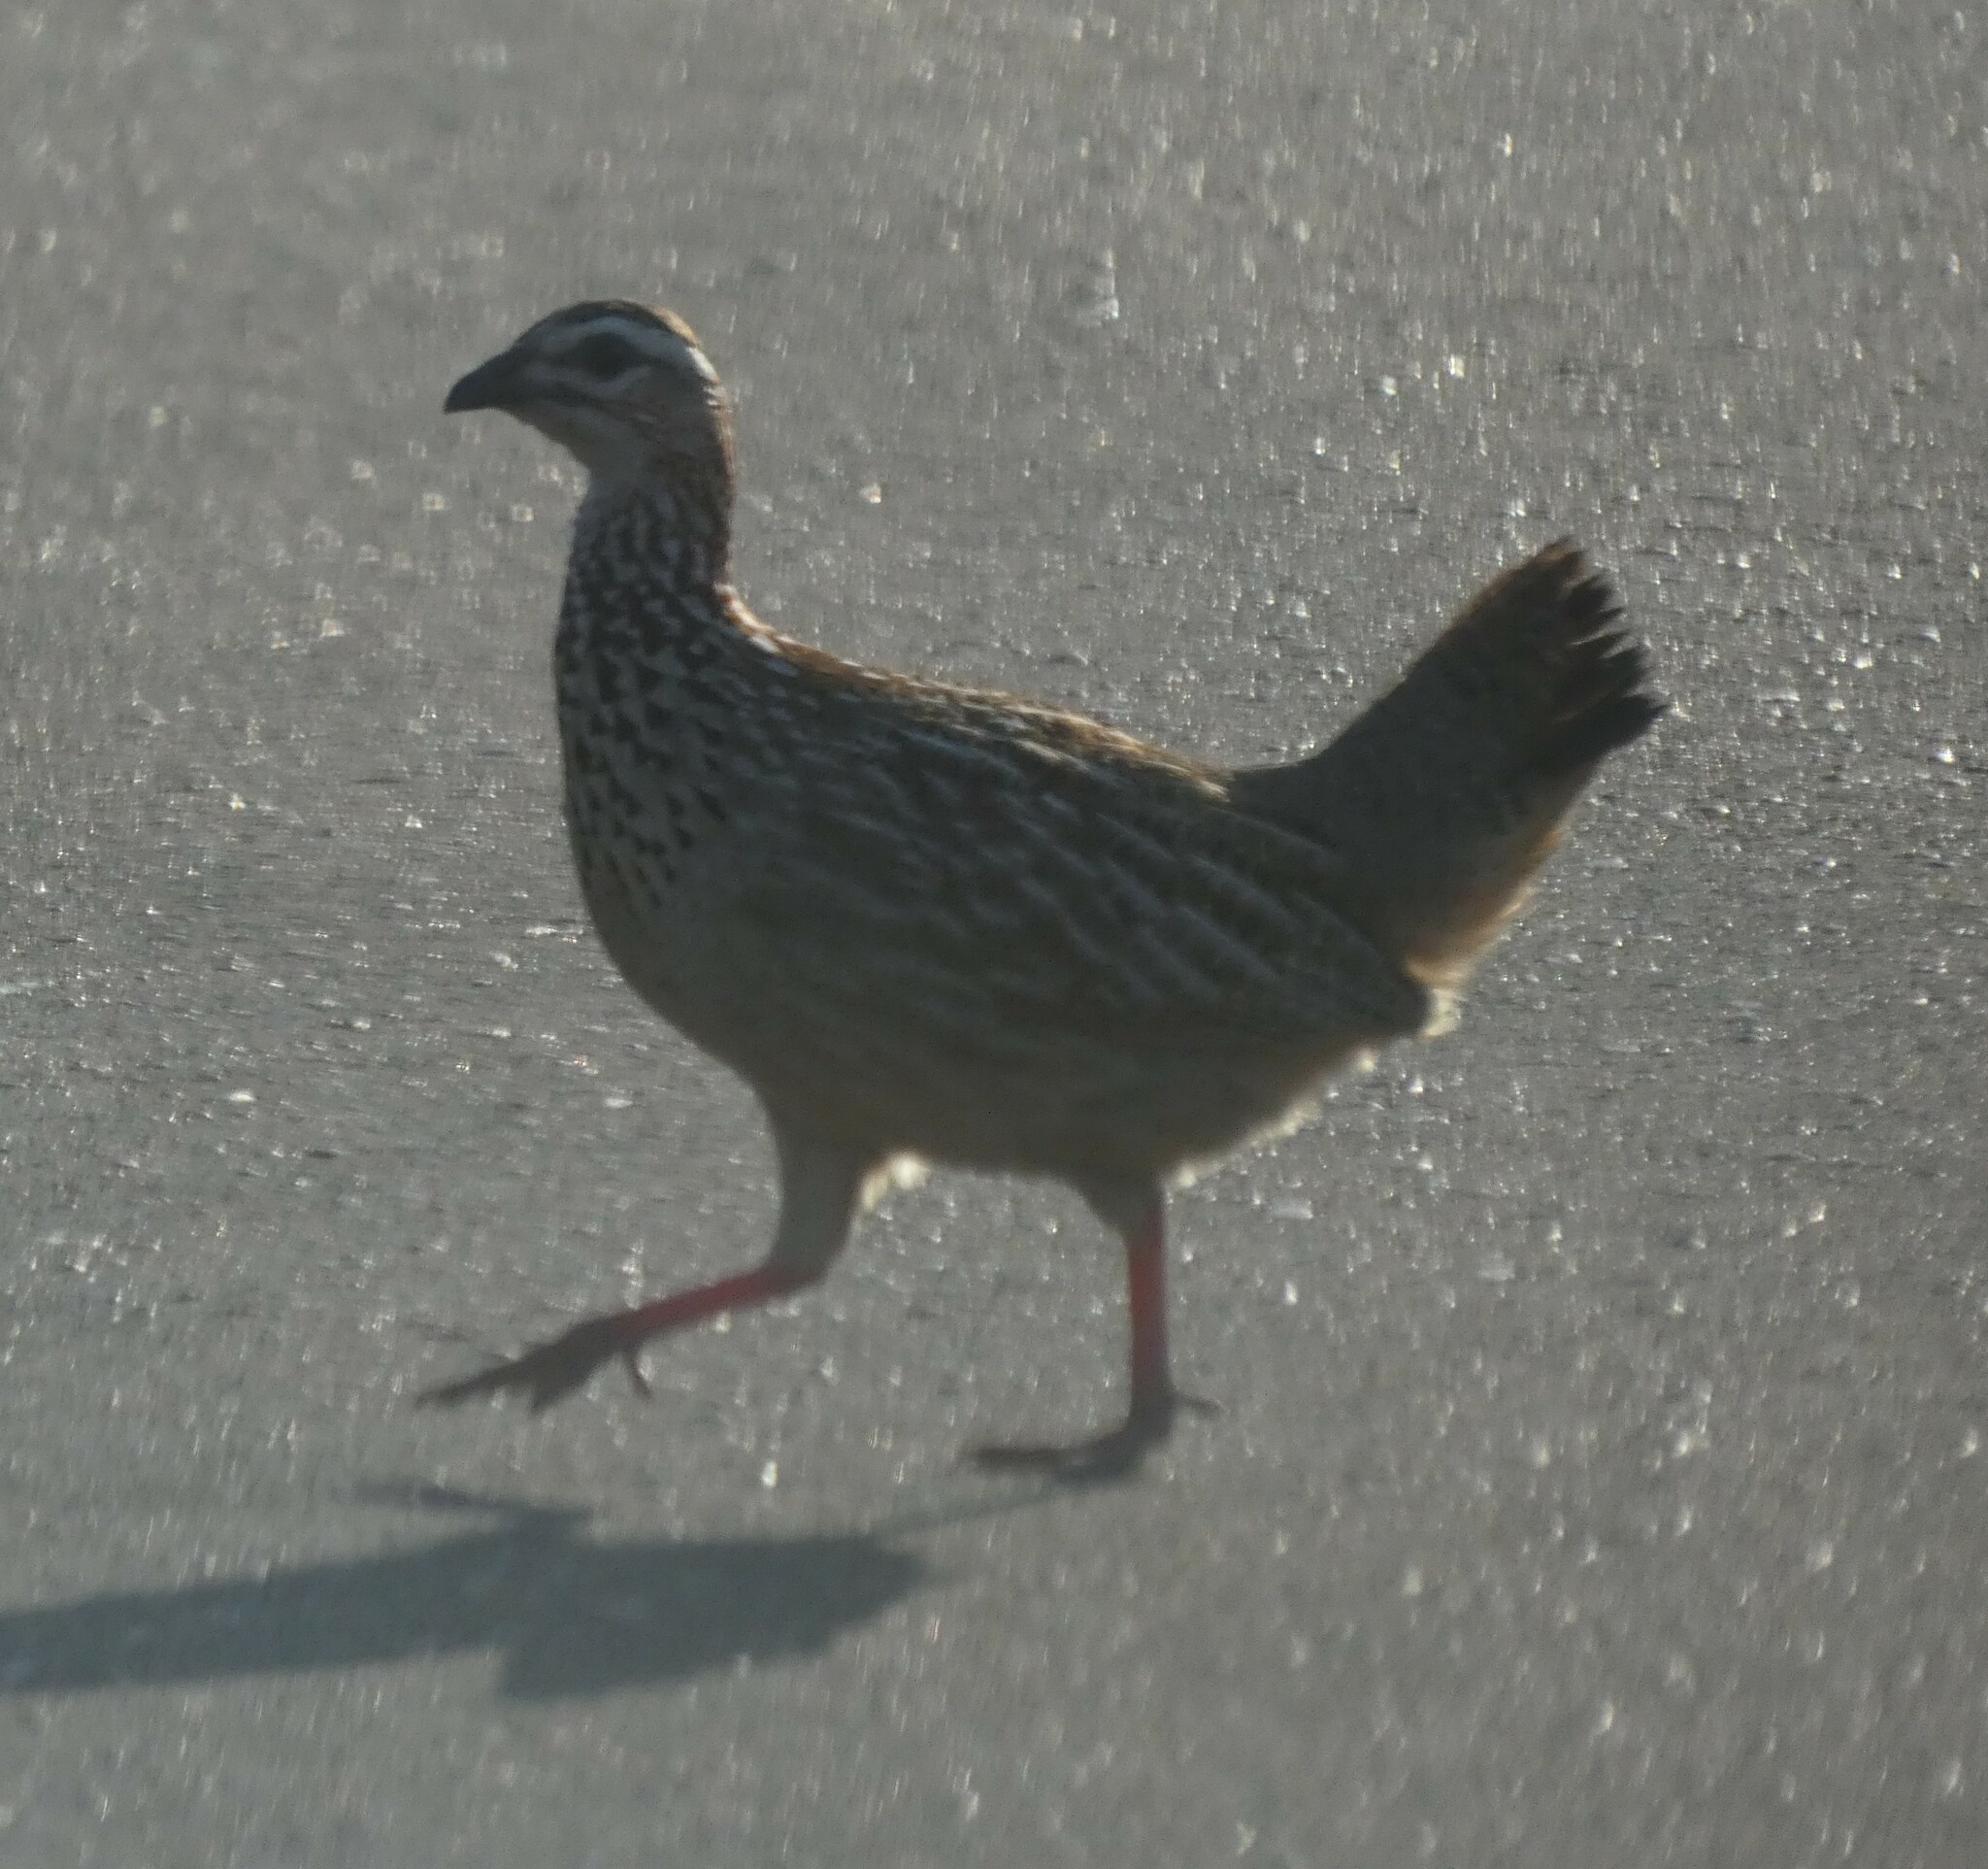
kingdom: Animalia
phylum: Chordata
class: Aves
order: Galliformes
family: Phasianidae
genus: Ortygornis
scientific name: Ortygornis sephaena
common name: Crested francolin
